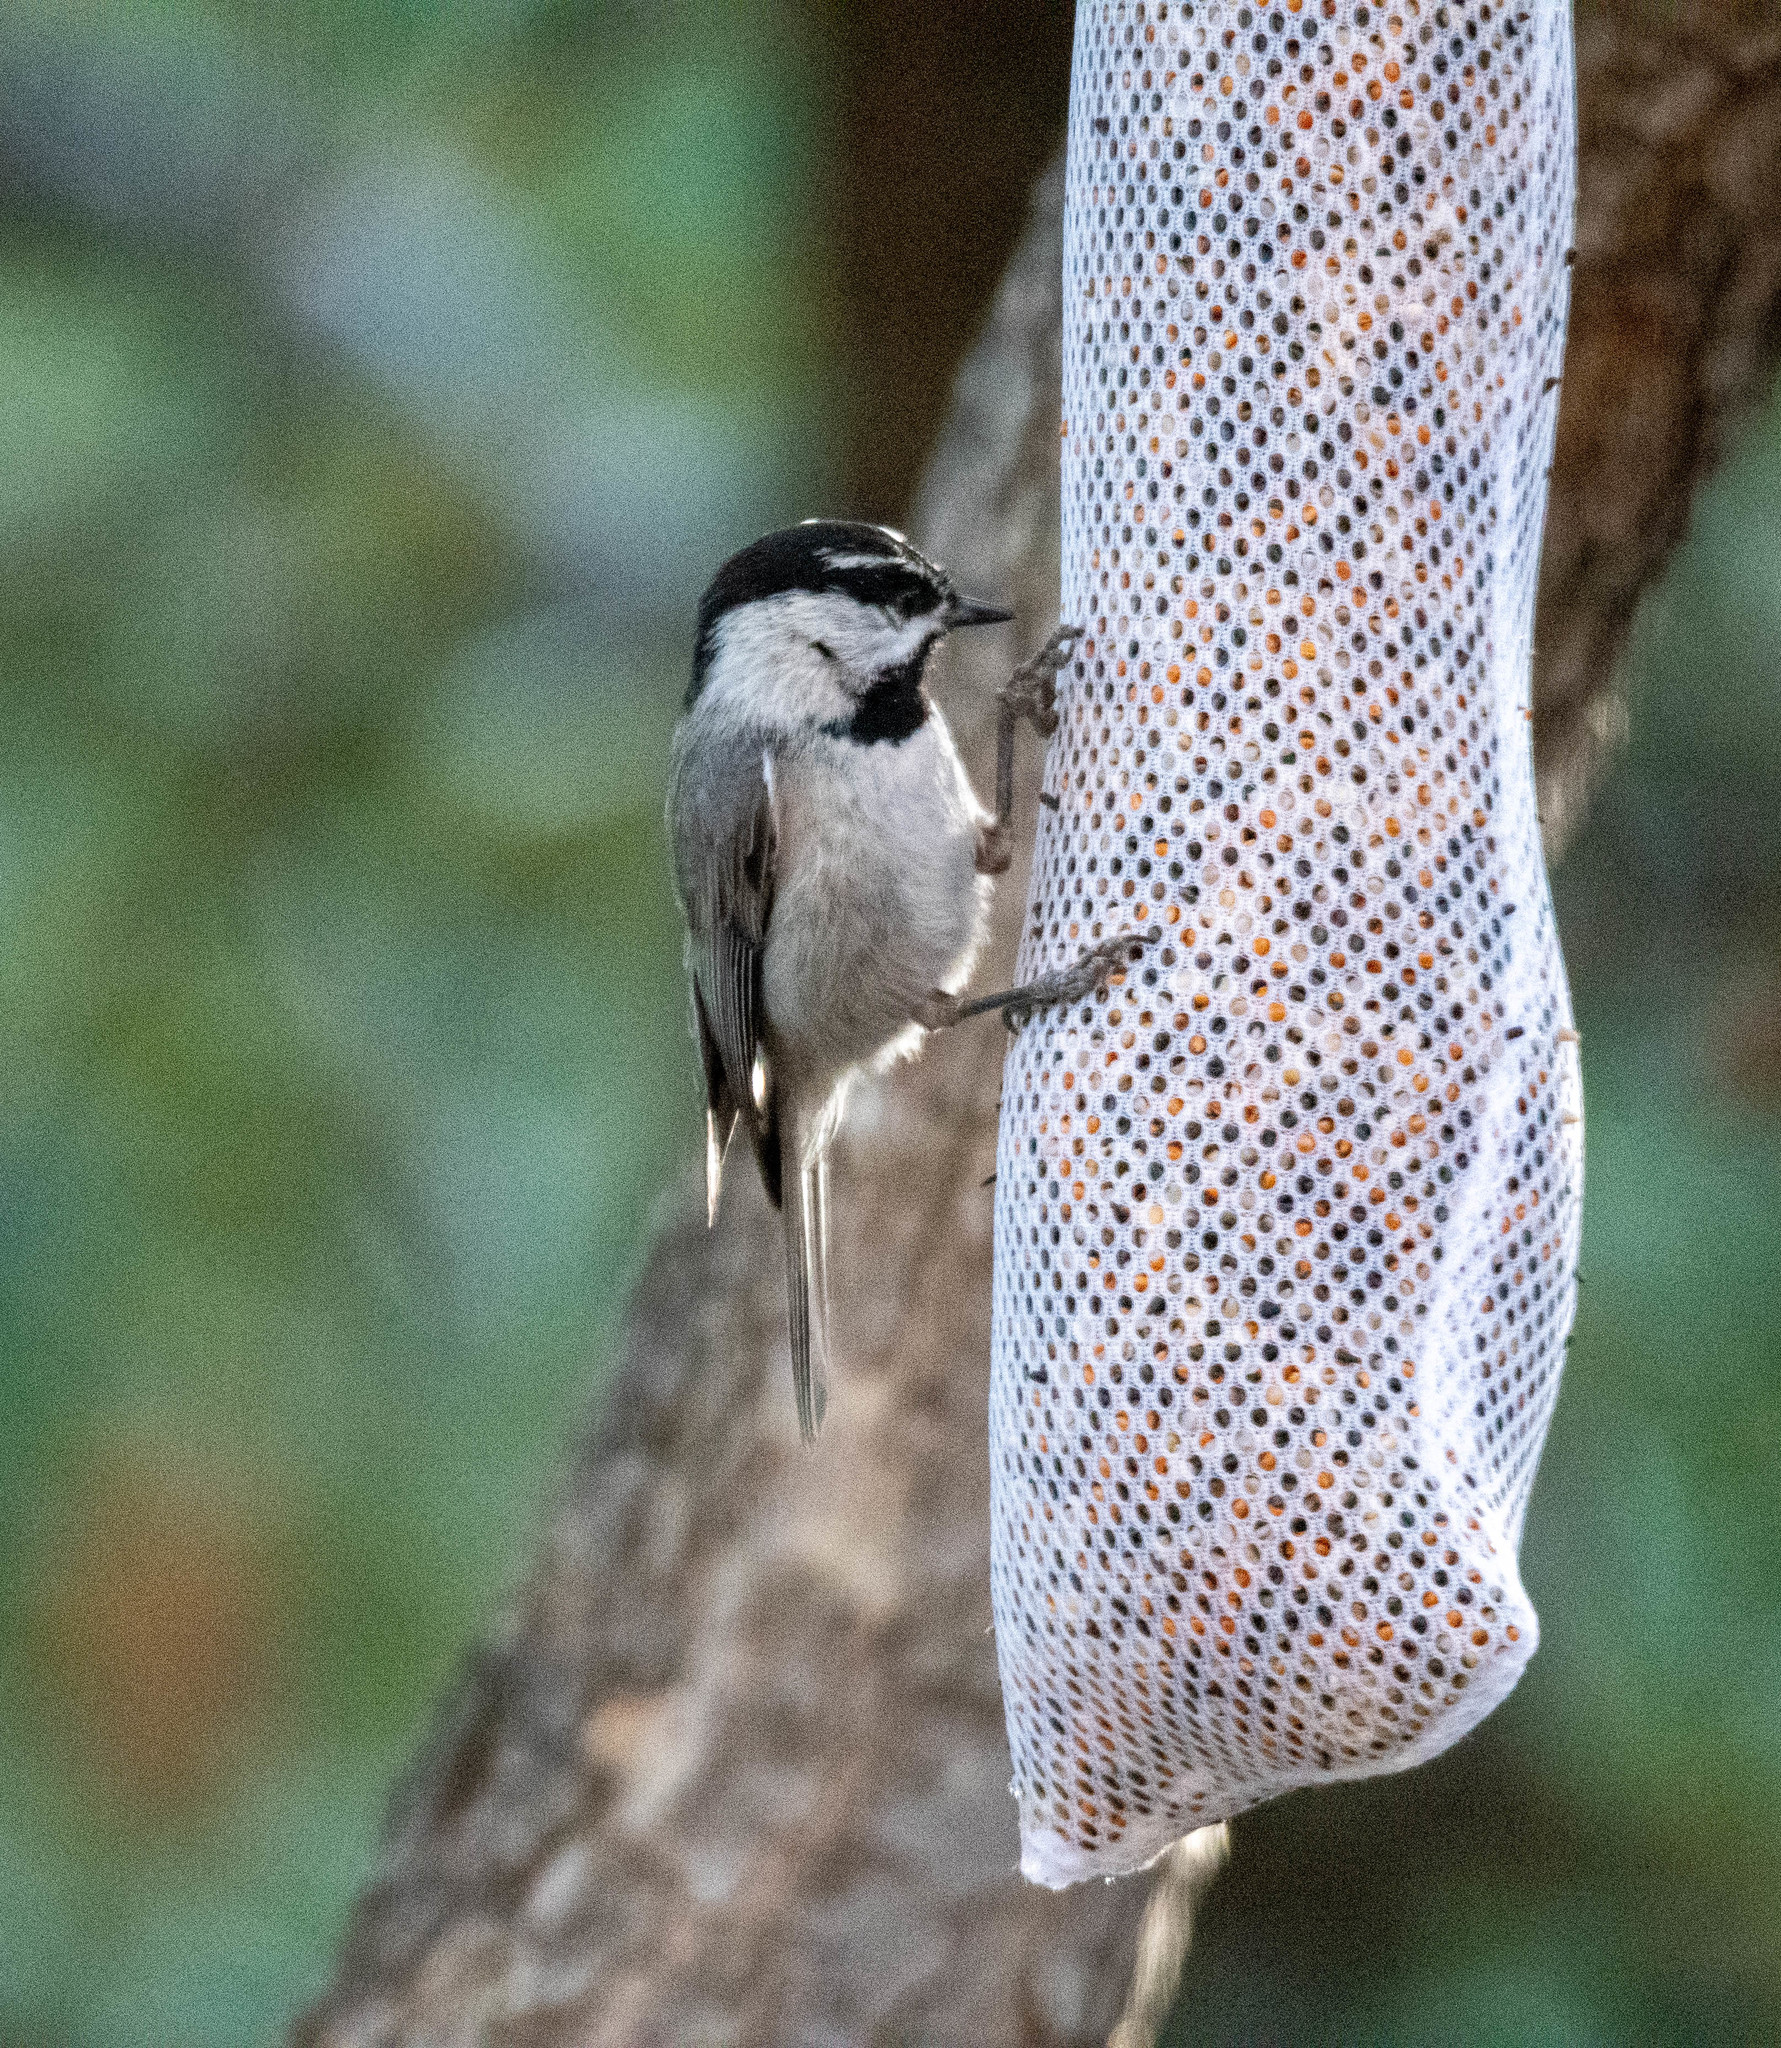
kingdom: Animalia
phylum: Chordata
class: Aves
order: Passeriformes
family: Paridae
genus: Poecile
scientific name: Poecile gambeli
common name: Mountain chickadee
